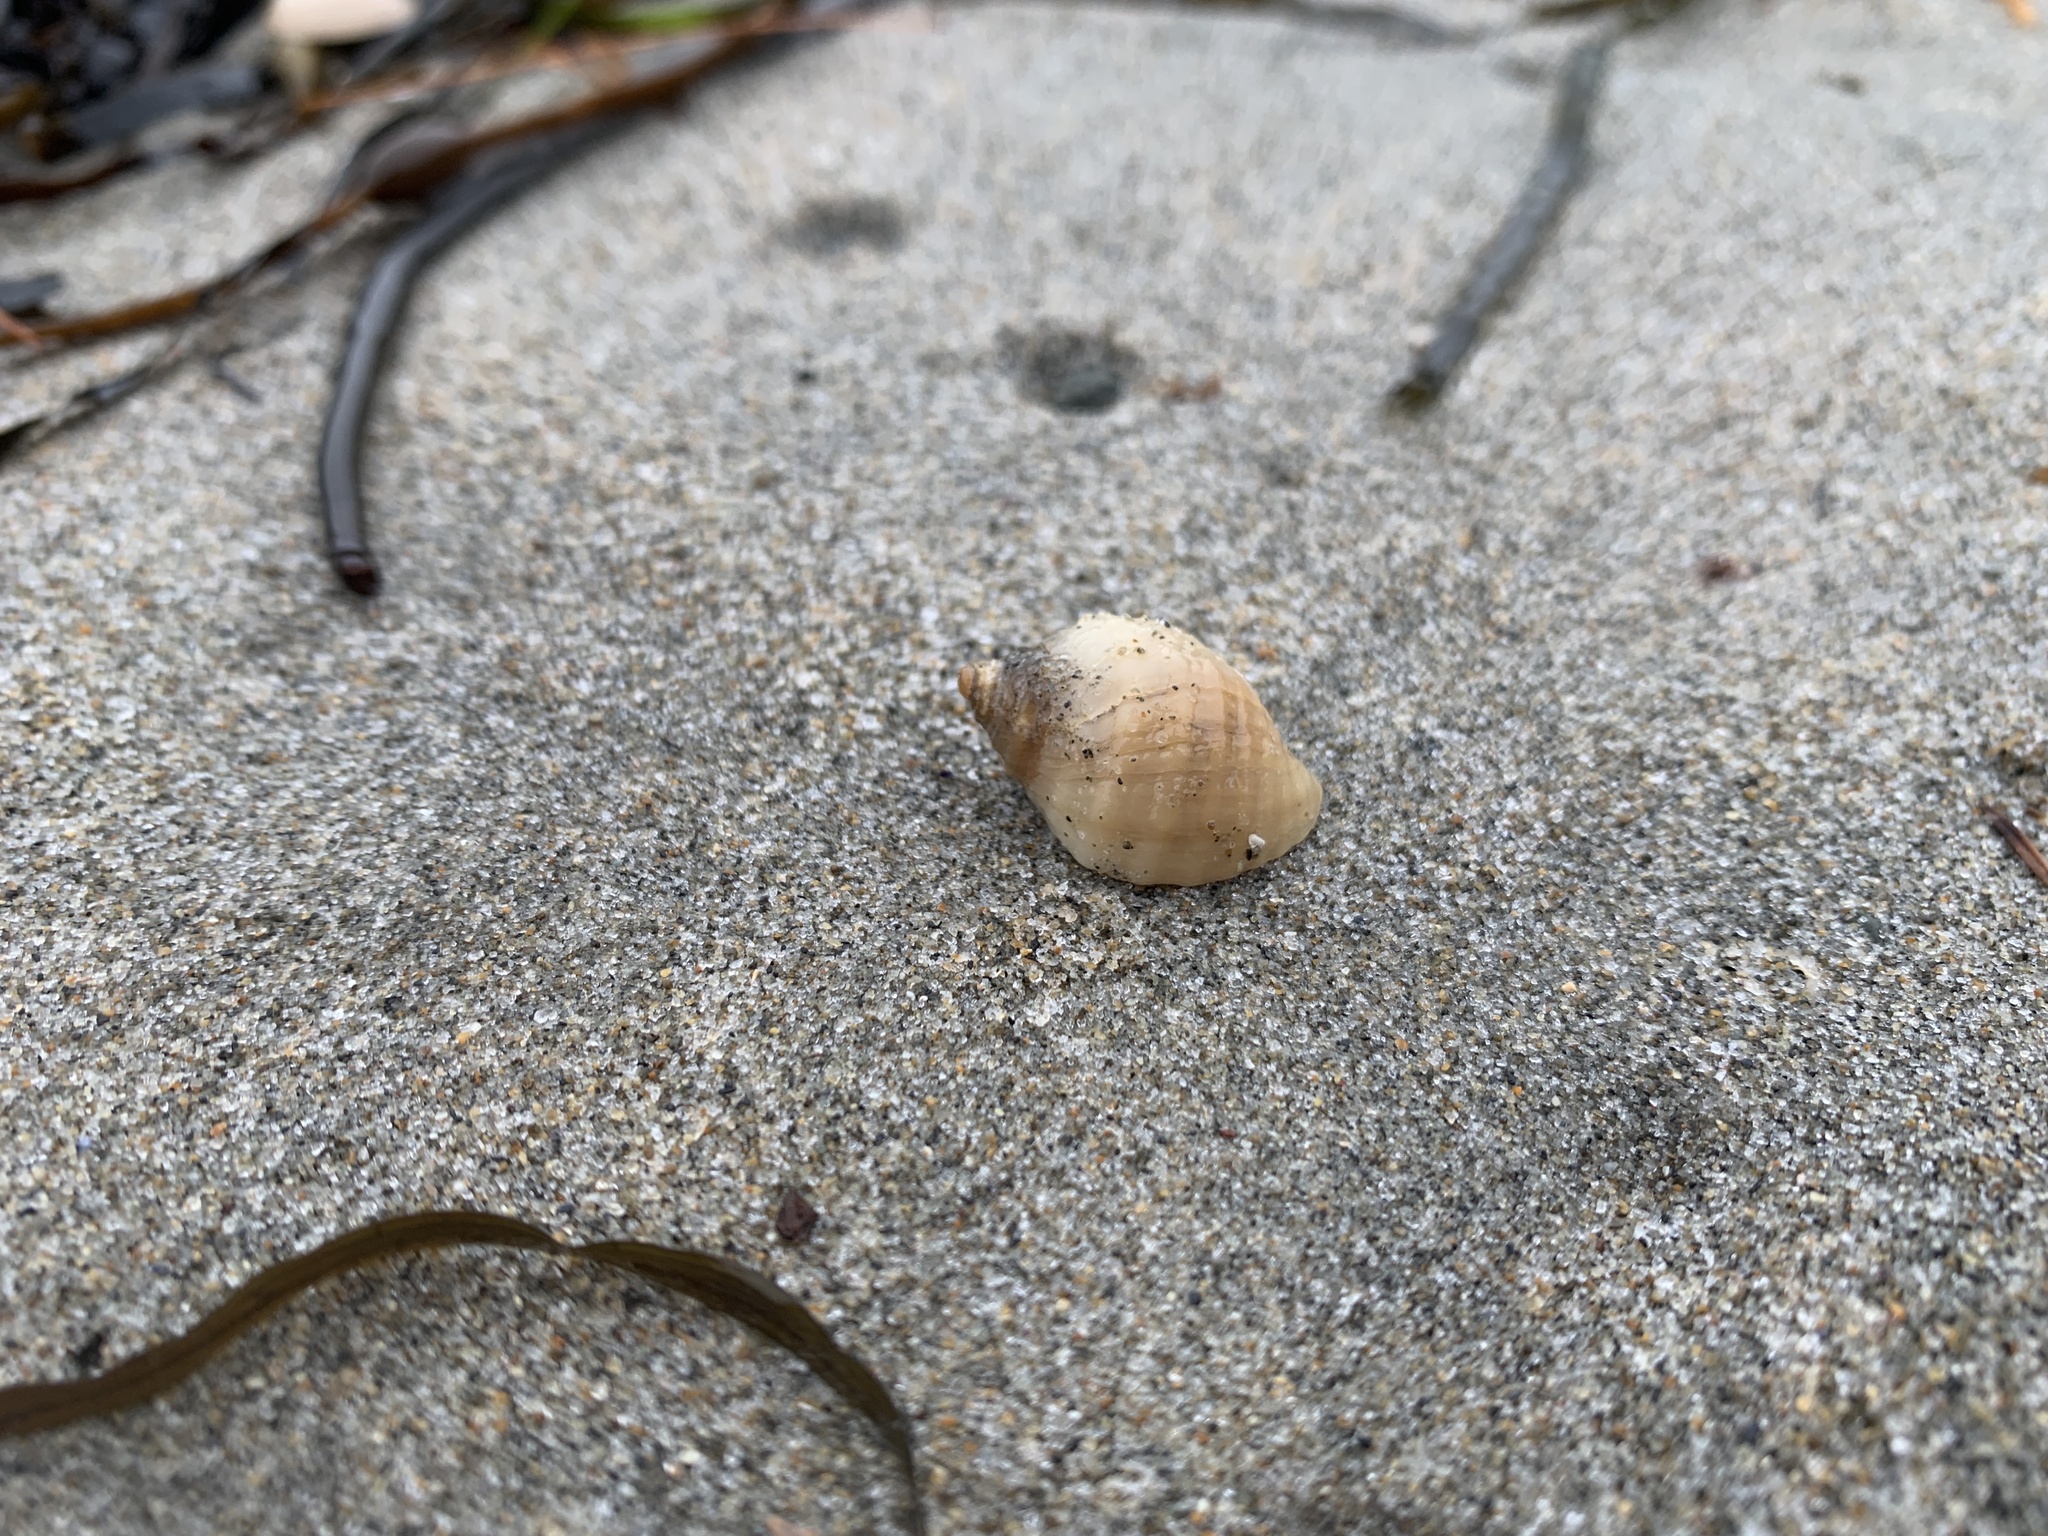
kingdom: Animalia
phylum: Mollusca
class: Gastropoda
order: Neogastropoda
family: Muricidae
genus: Nucella
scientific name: Nucella lapillus
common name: Dog whelk
